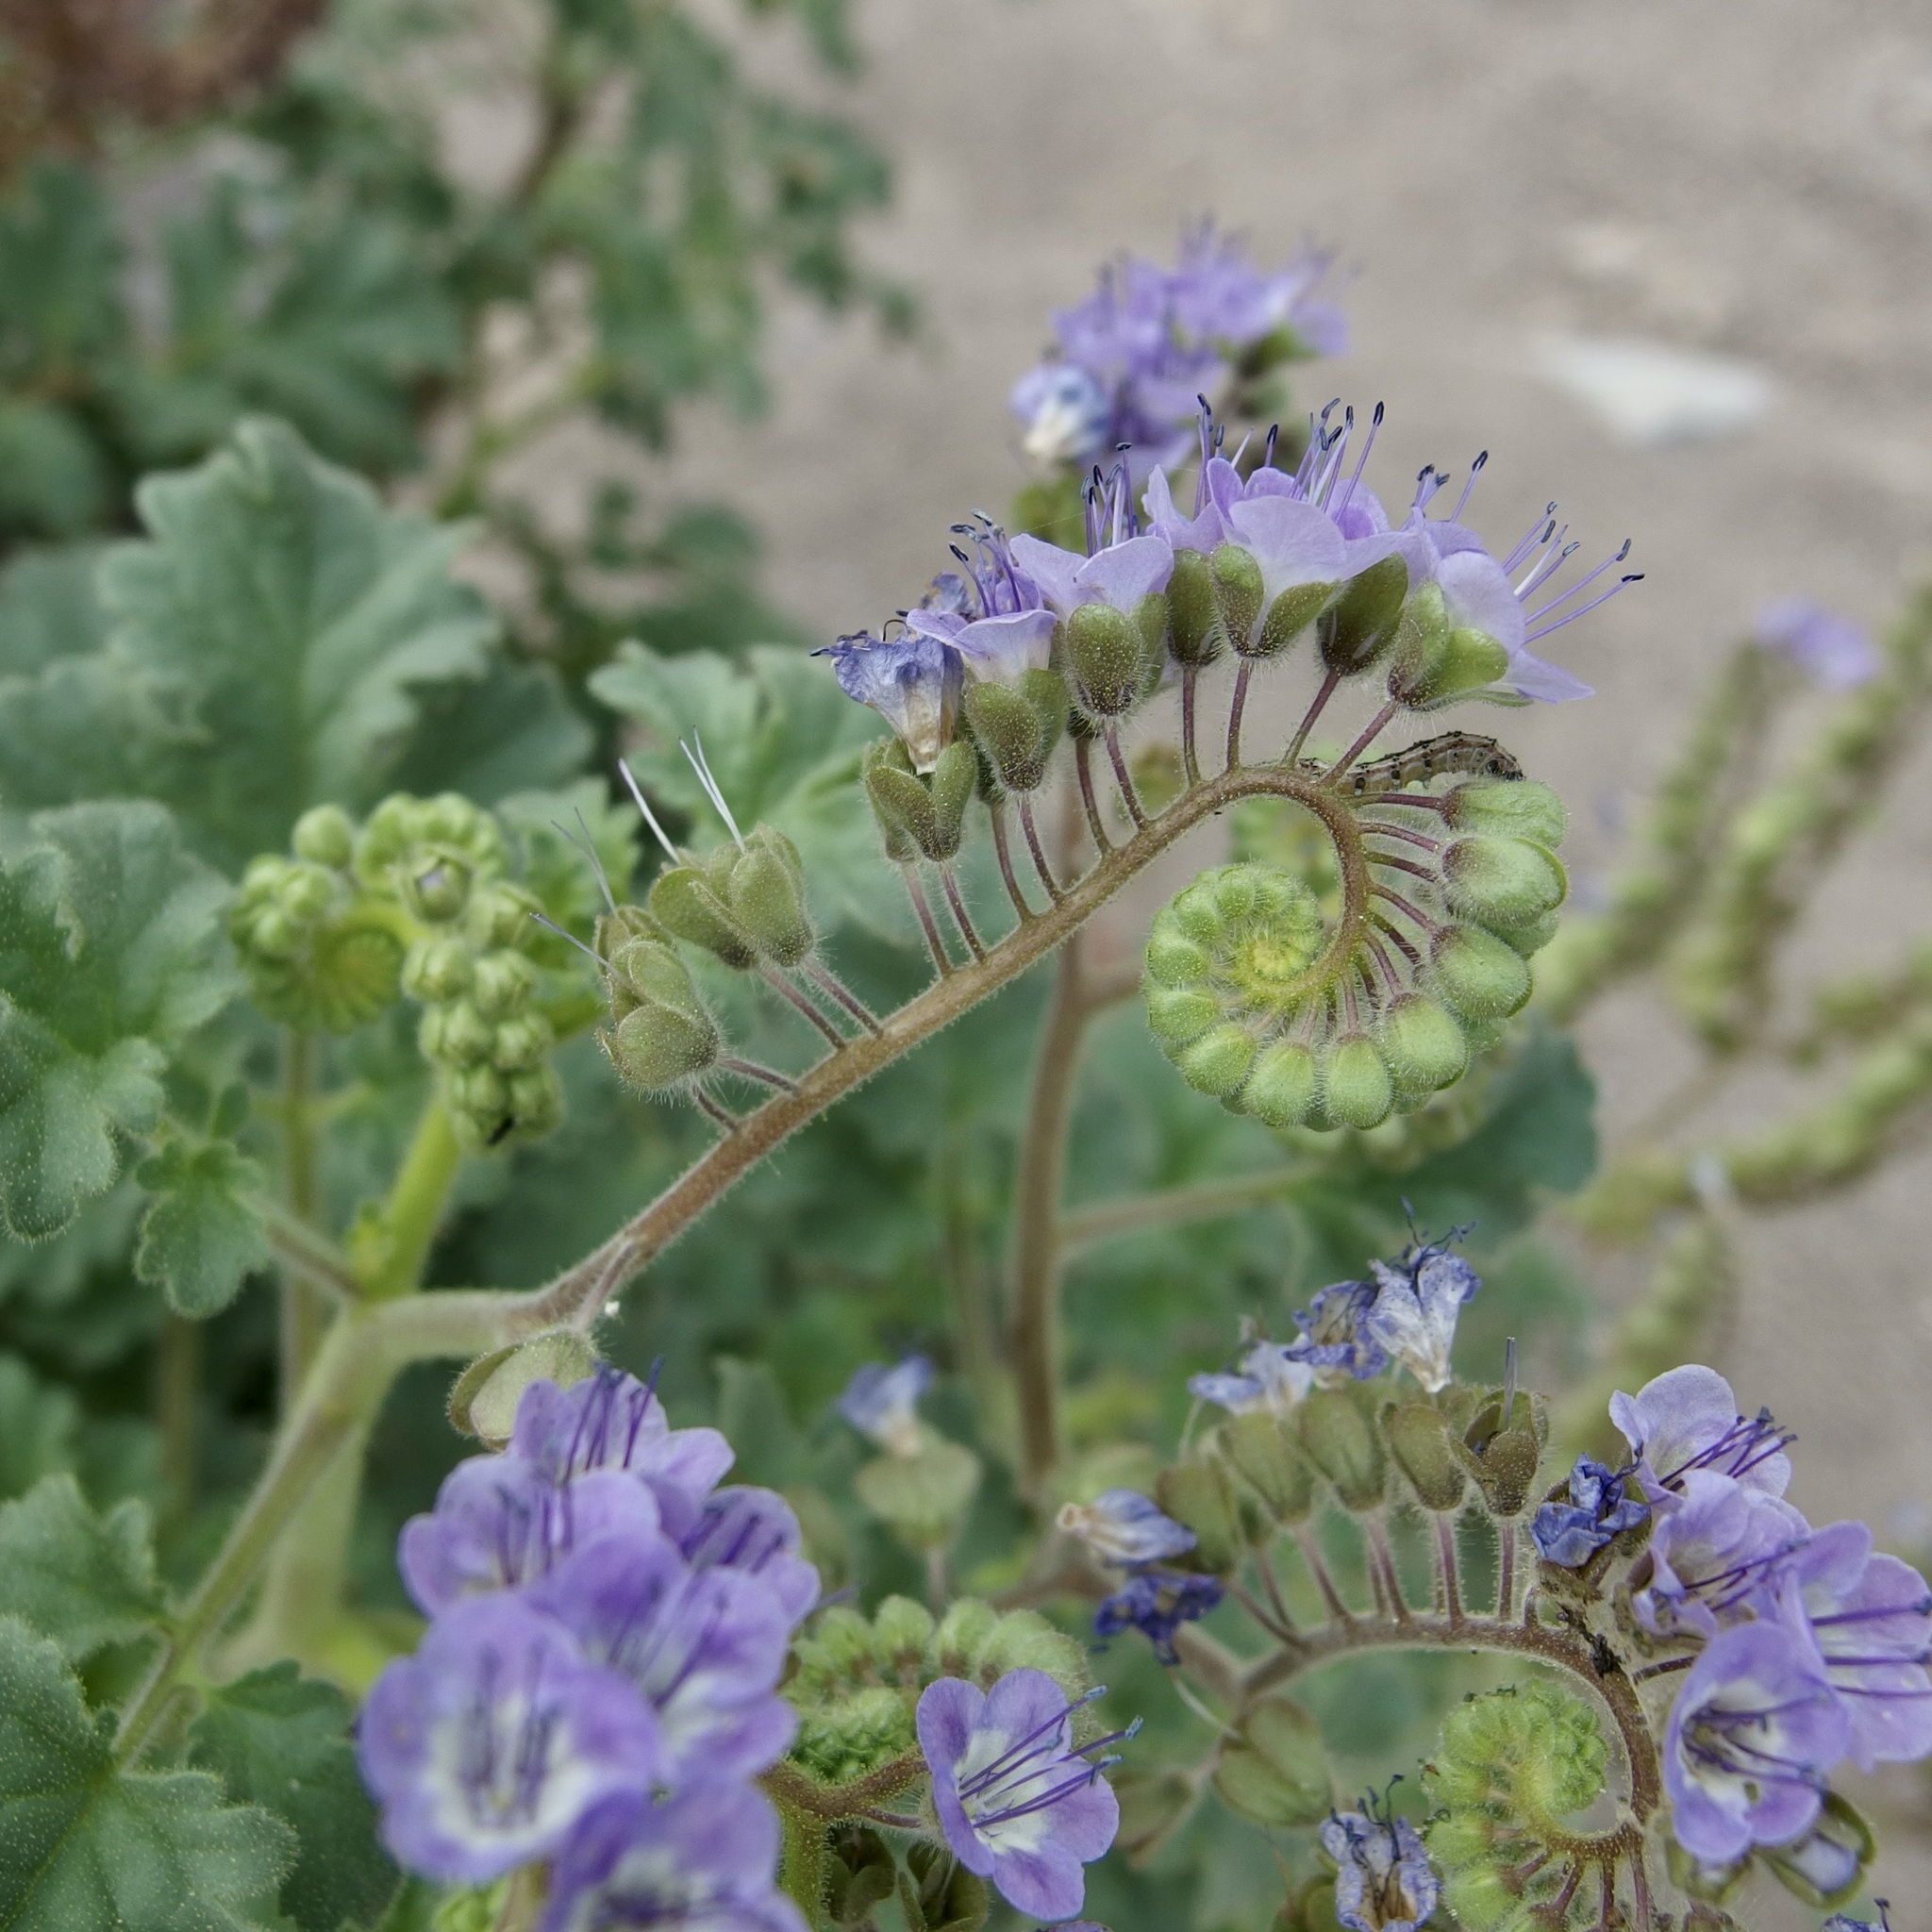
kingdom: Plantae
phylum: Tracheophyta
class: Magnoliopsida
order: Boraginales
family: Hydrophyllaceae
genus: Phacelia
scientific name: Phacelia scariosa
